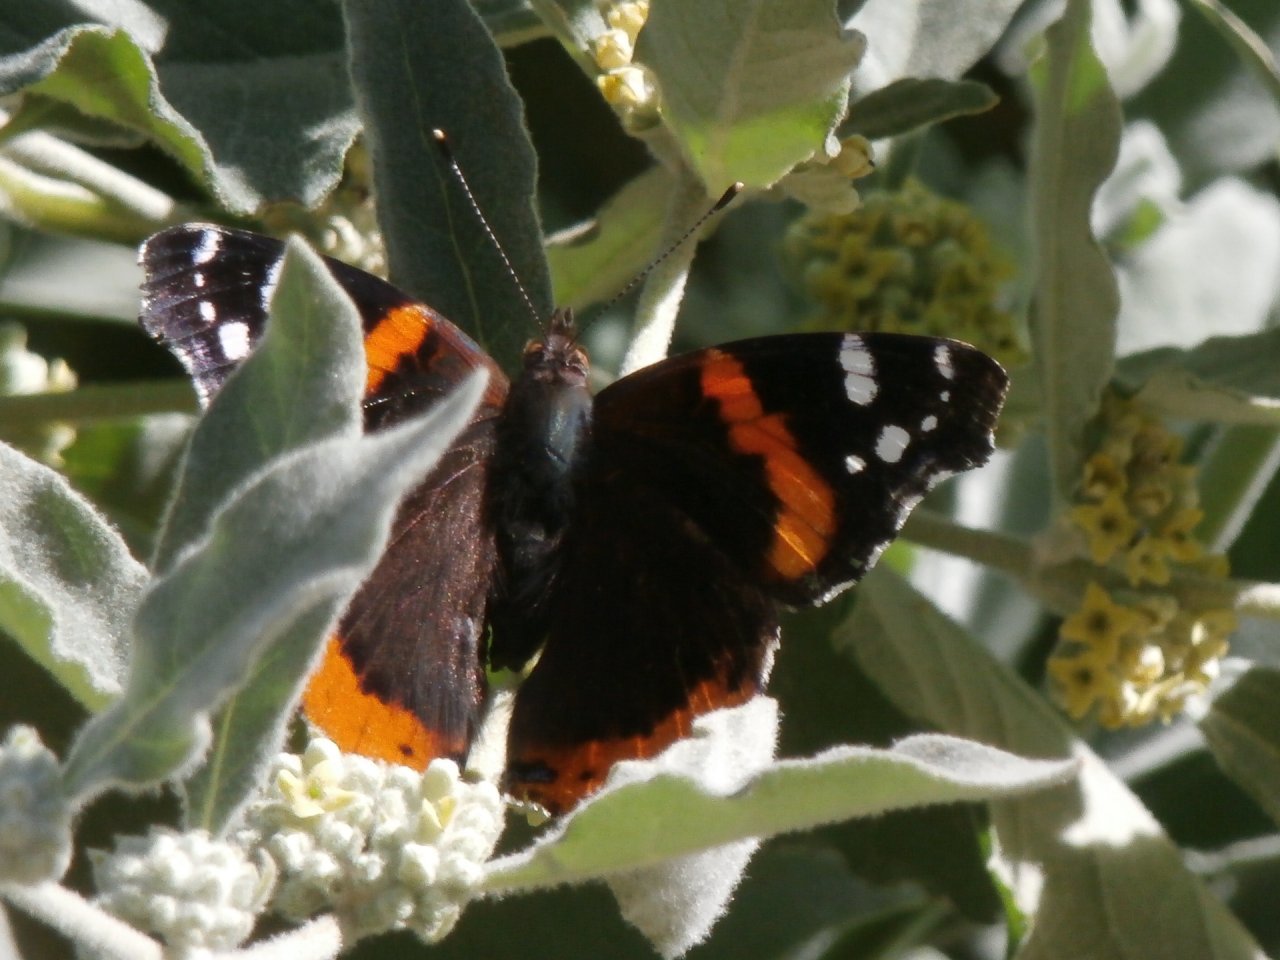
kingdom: Animalia
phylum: Arthropoda
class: Insecta
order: Lepidoptera
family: Nymphalidae
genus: Vanessa
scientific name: Vanessa atalanta
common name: Red admiral
